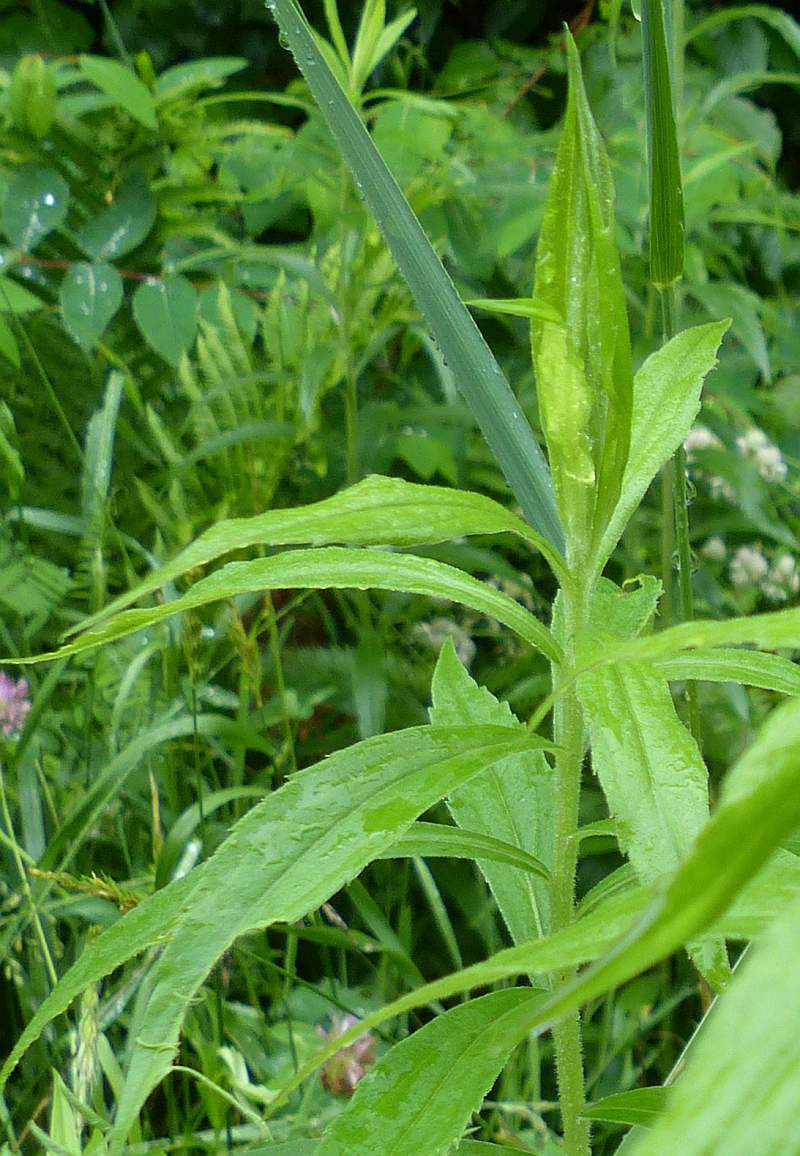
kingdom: Plantae
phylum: Tracheophyta
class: Magnoliopsida
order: Asterales
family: Asteraceae
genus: Solidago
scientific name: Solidago canadensis
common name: Canada goldenrod
